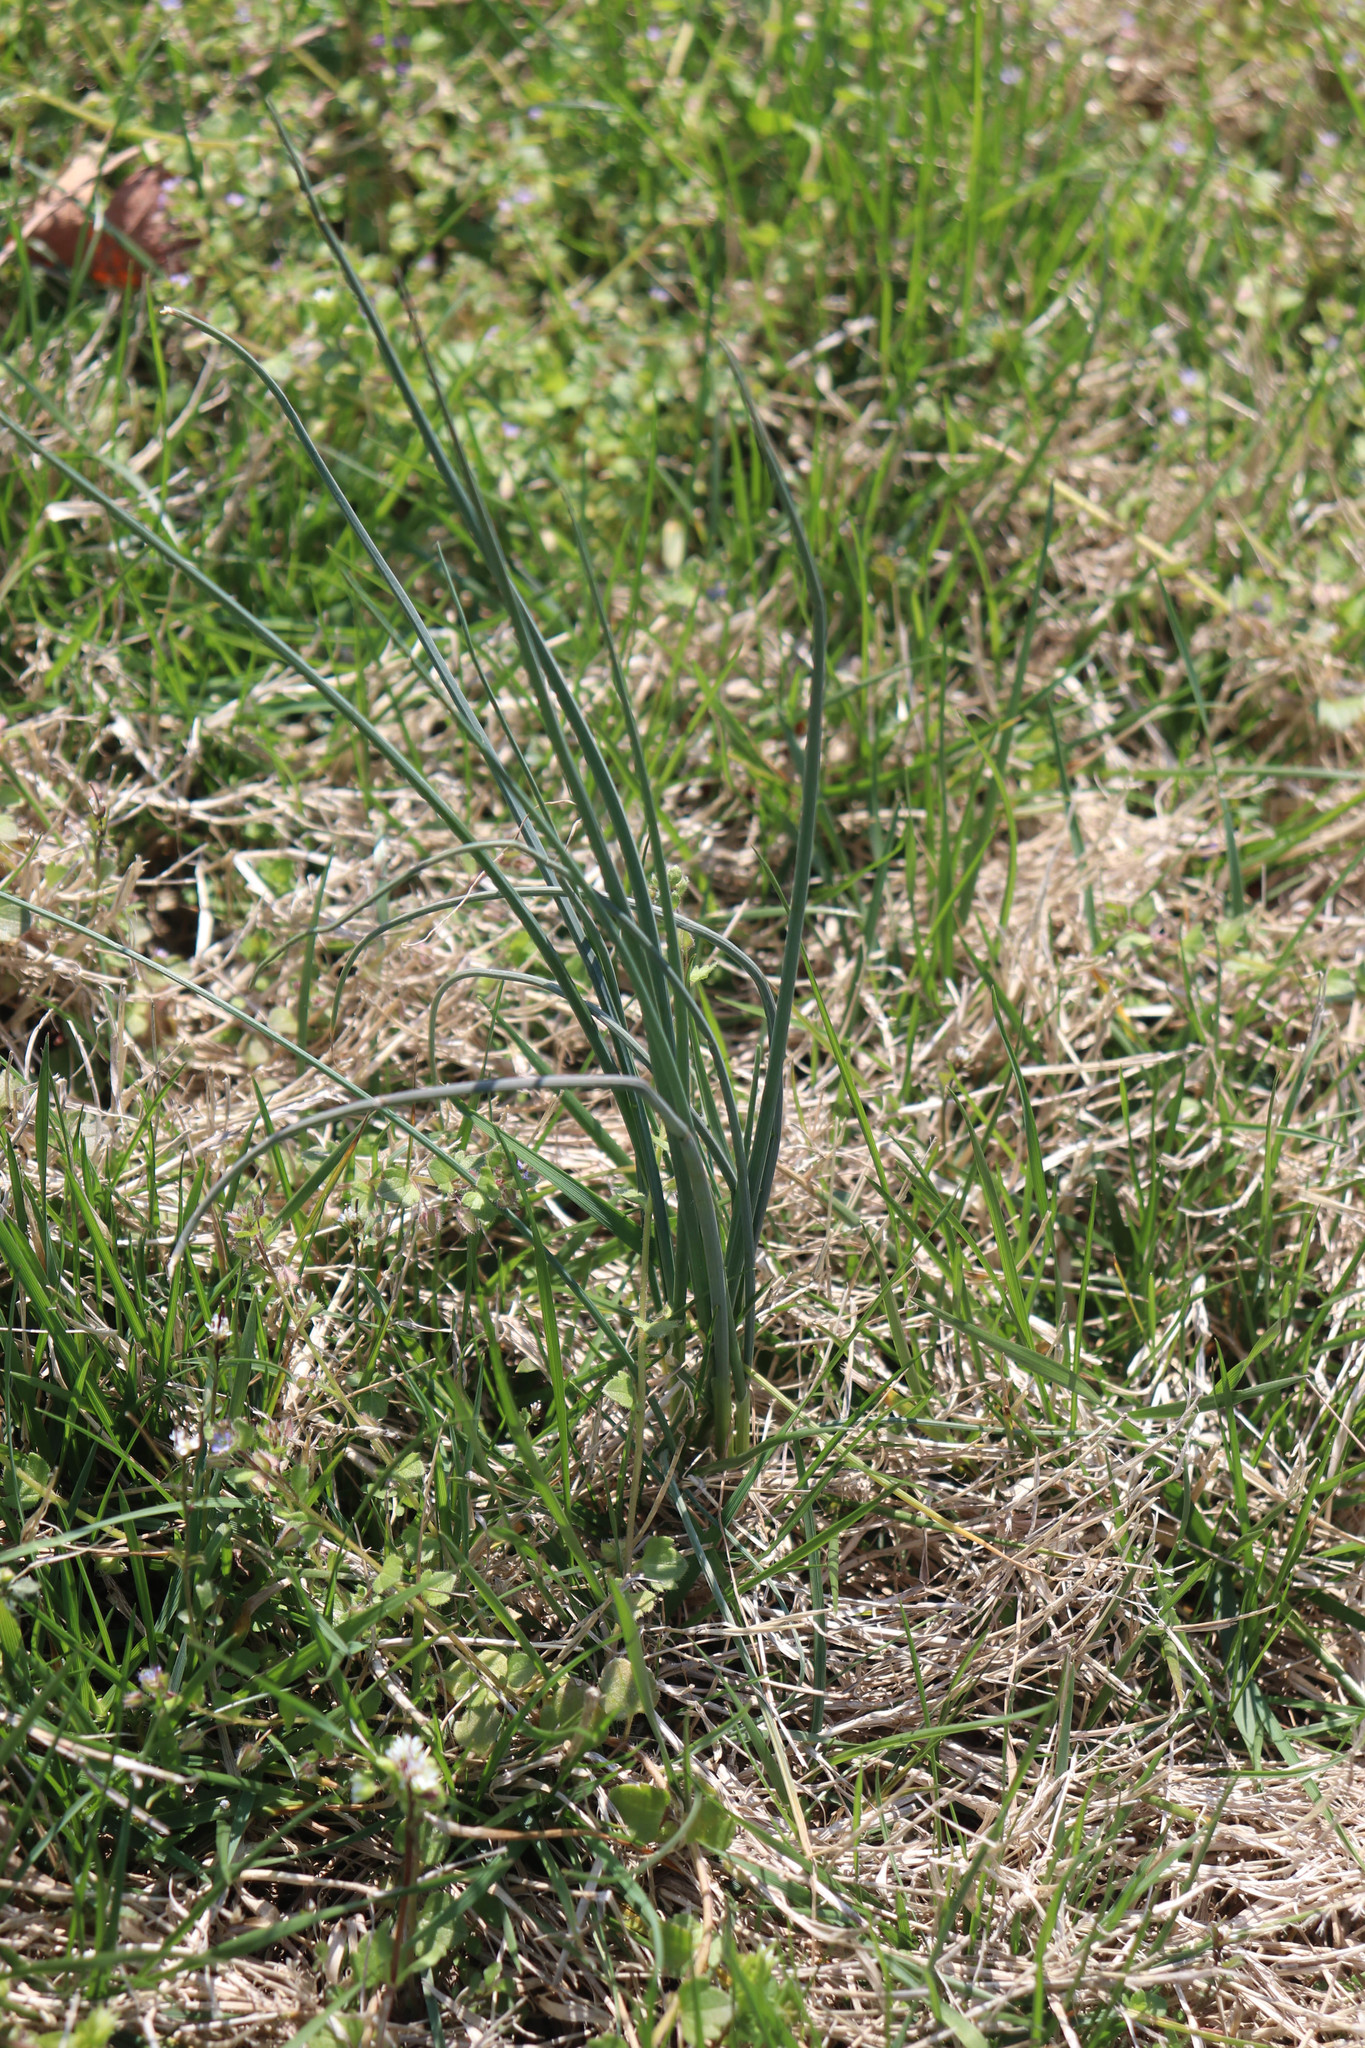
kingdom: Plantae
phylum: Tracheophyta
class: Liliopsida
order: Asparagales
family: Amaryllidaceae
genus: Allium
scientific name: Allium vineale
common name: Crow garlic
